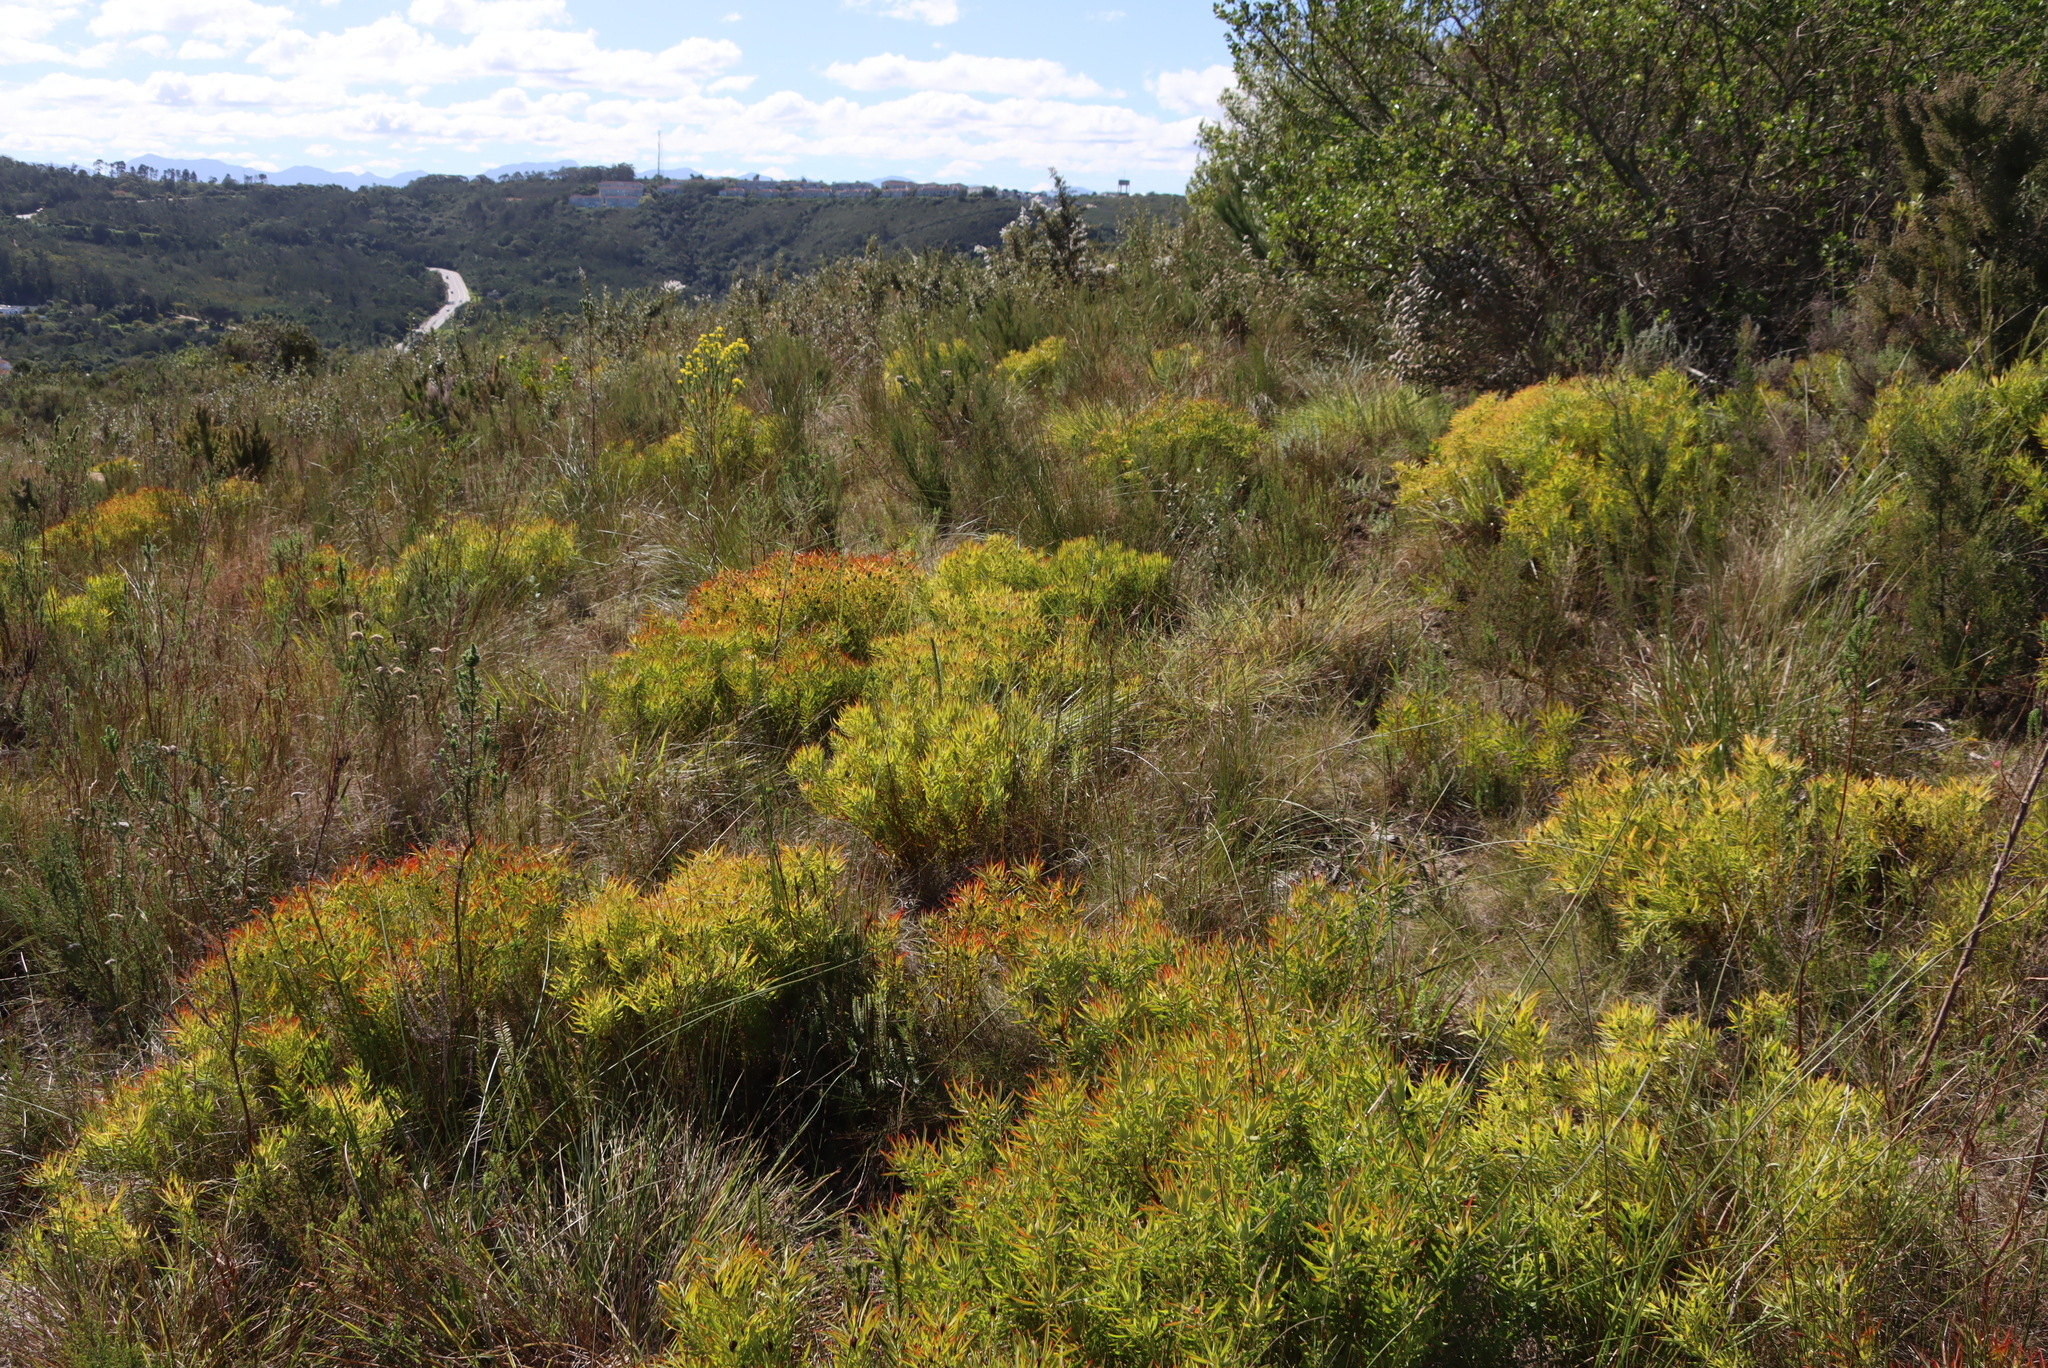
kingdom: Plantae
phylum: Tracheophyta
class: Magnoliopsida
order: Proteales
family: Proteaceae
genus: Leucadendron
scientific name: Leucadendron salignum
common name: Common sunshine conebush
